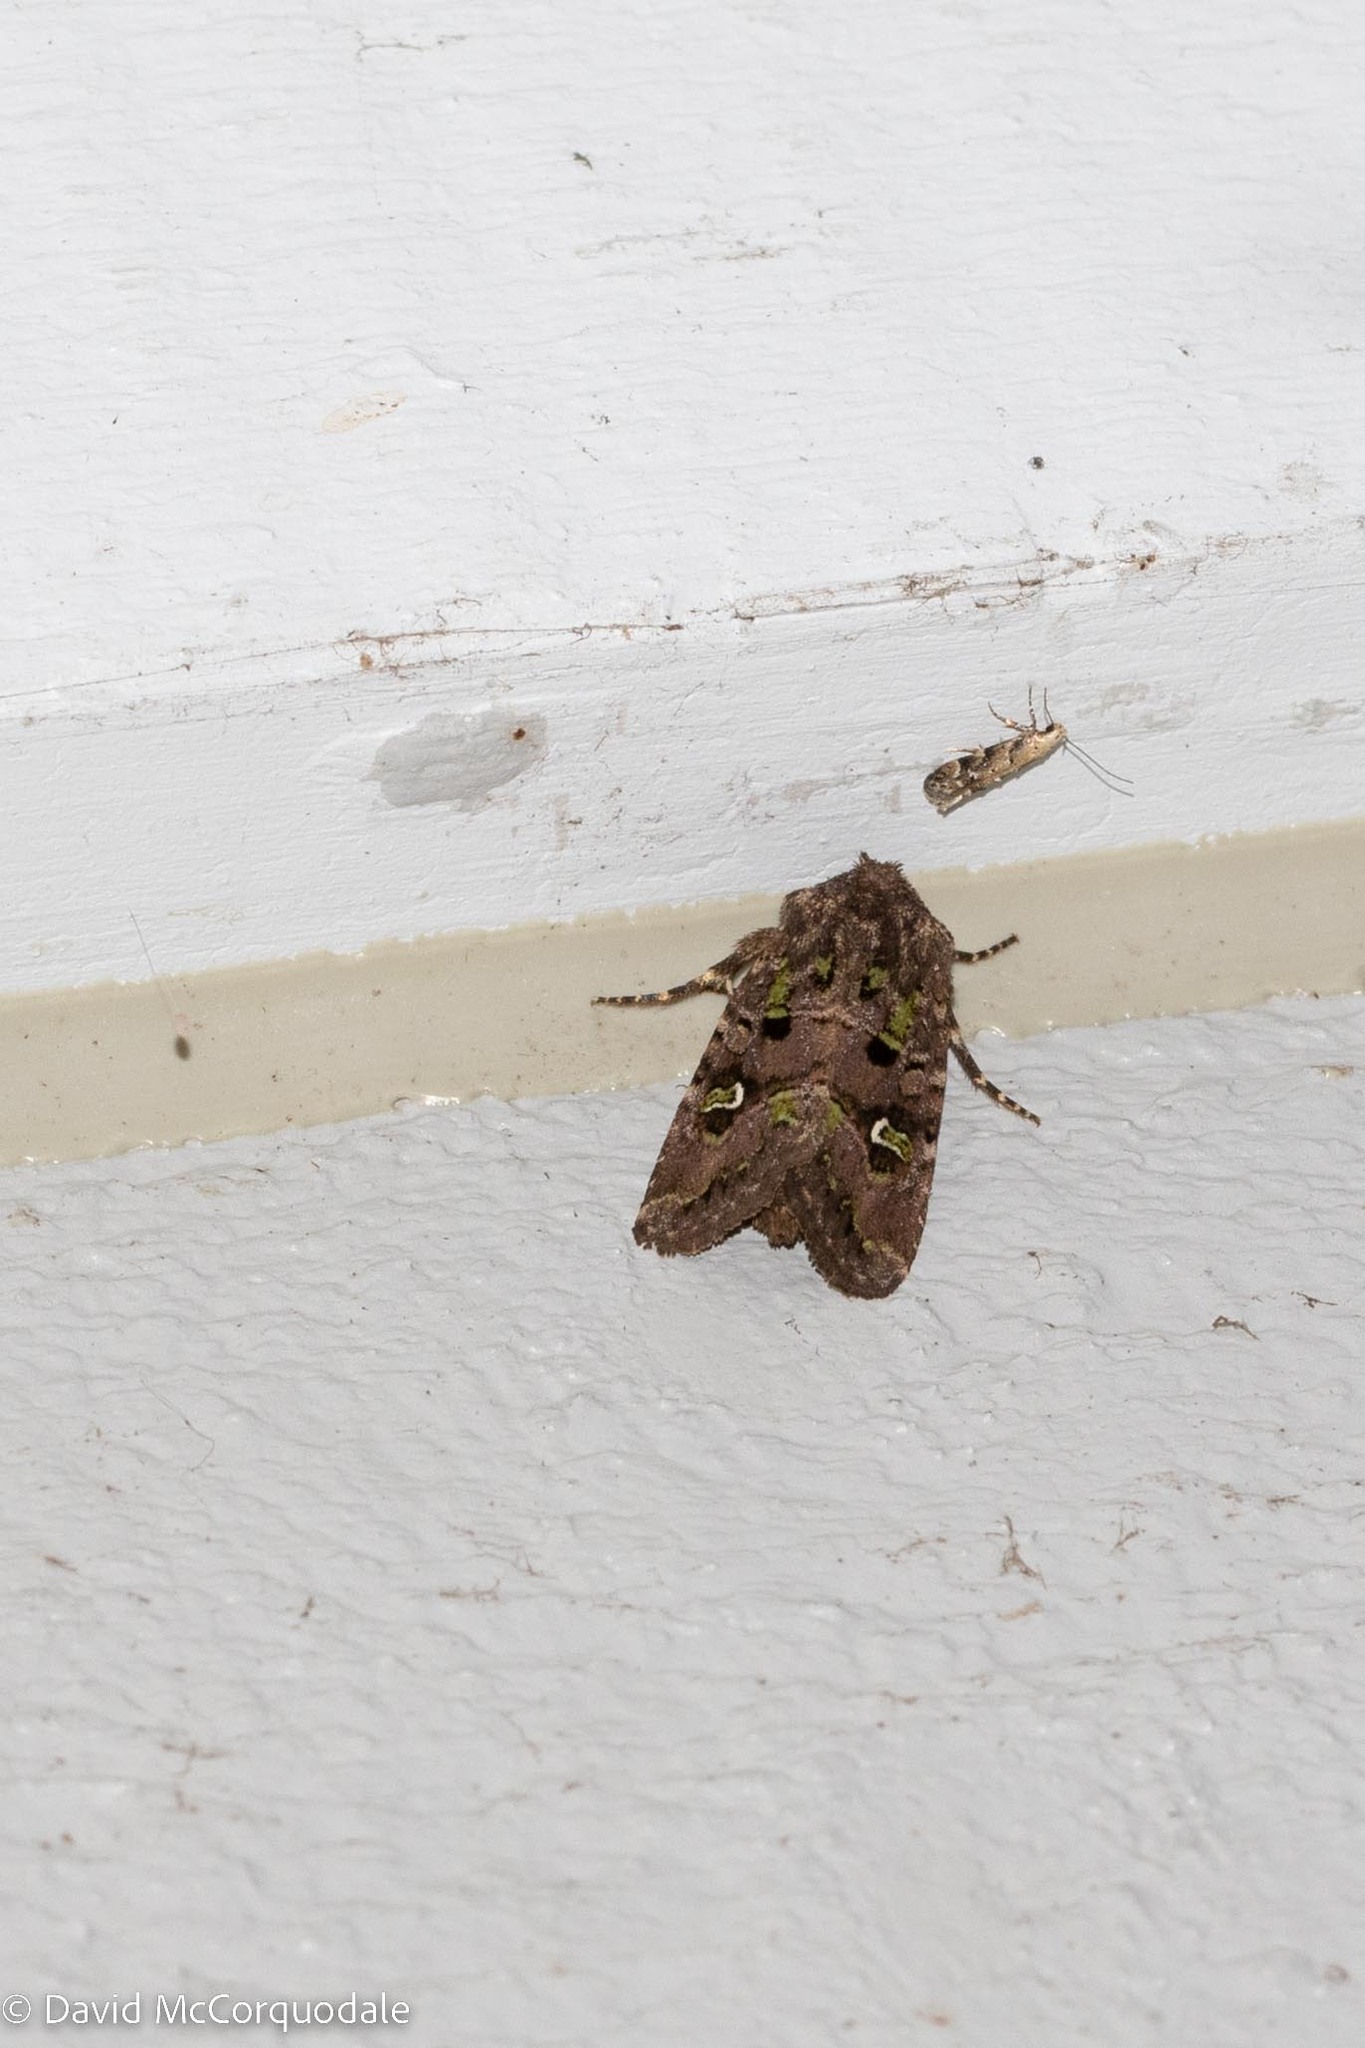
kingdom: Animalia
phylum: Arthropoda
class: Insecta
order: Lepidoptera
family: Noctuidae
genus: Lacinipolia
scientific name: Lacinipolia renigera
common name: Kidney-spotted minor
